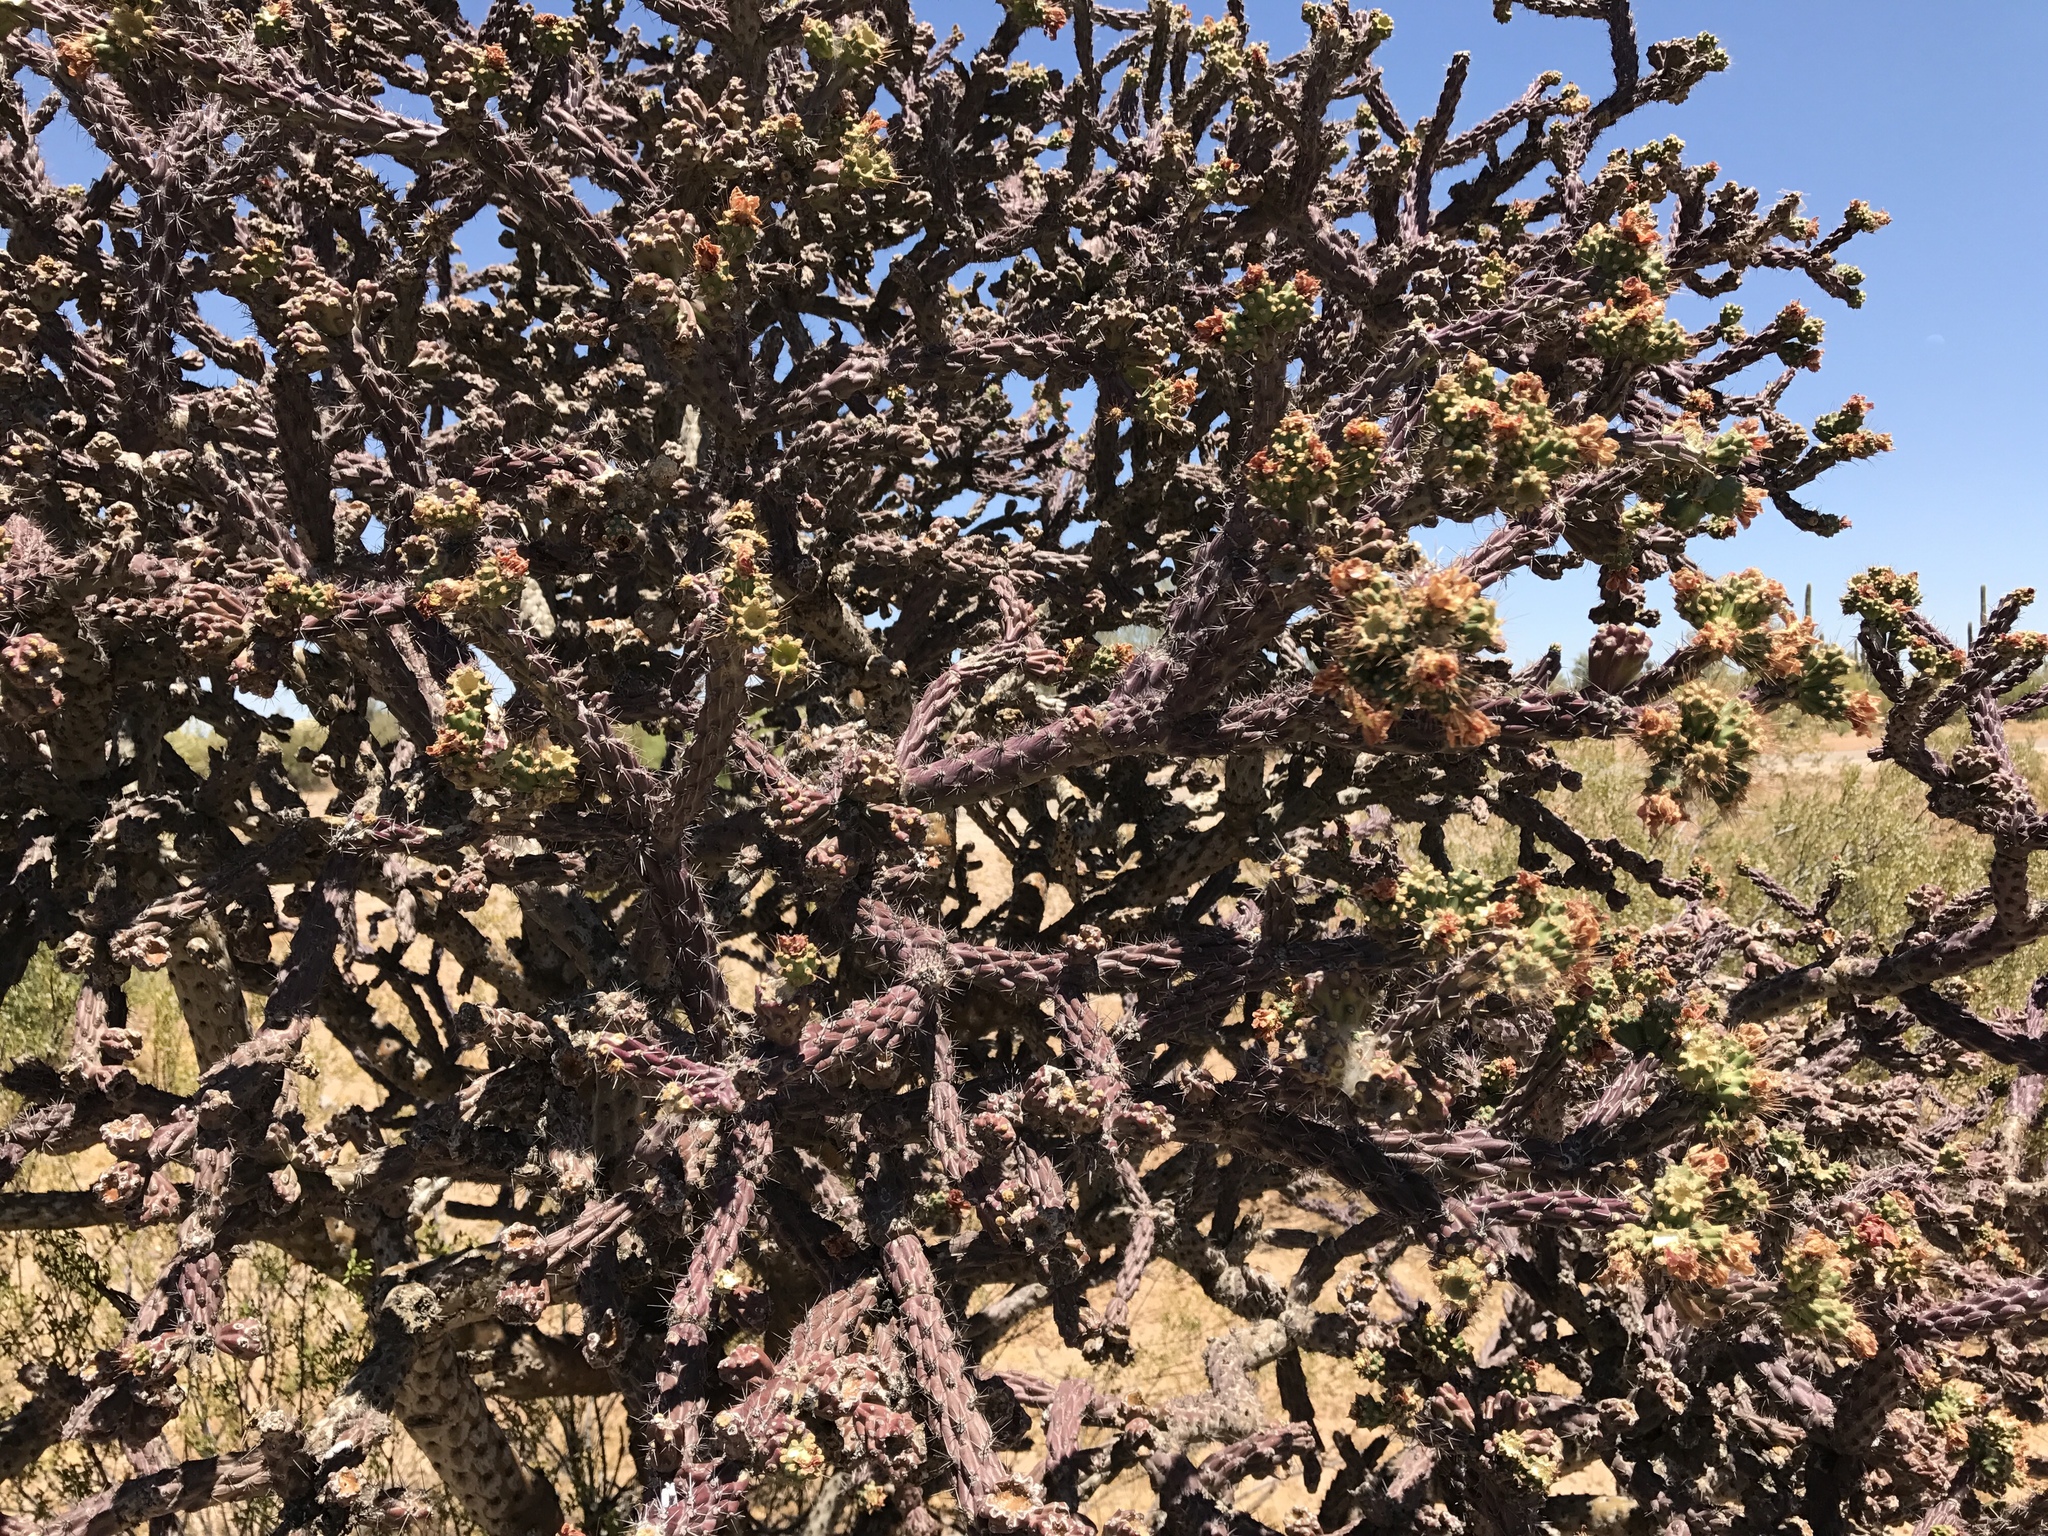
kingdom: Plantae
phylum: Tracheophyta
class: Magnoliopsida
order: Caryophyllales
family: Cactaceae
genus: Cylindropuntia
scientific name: Cylindropuntia thurberi
